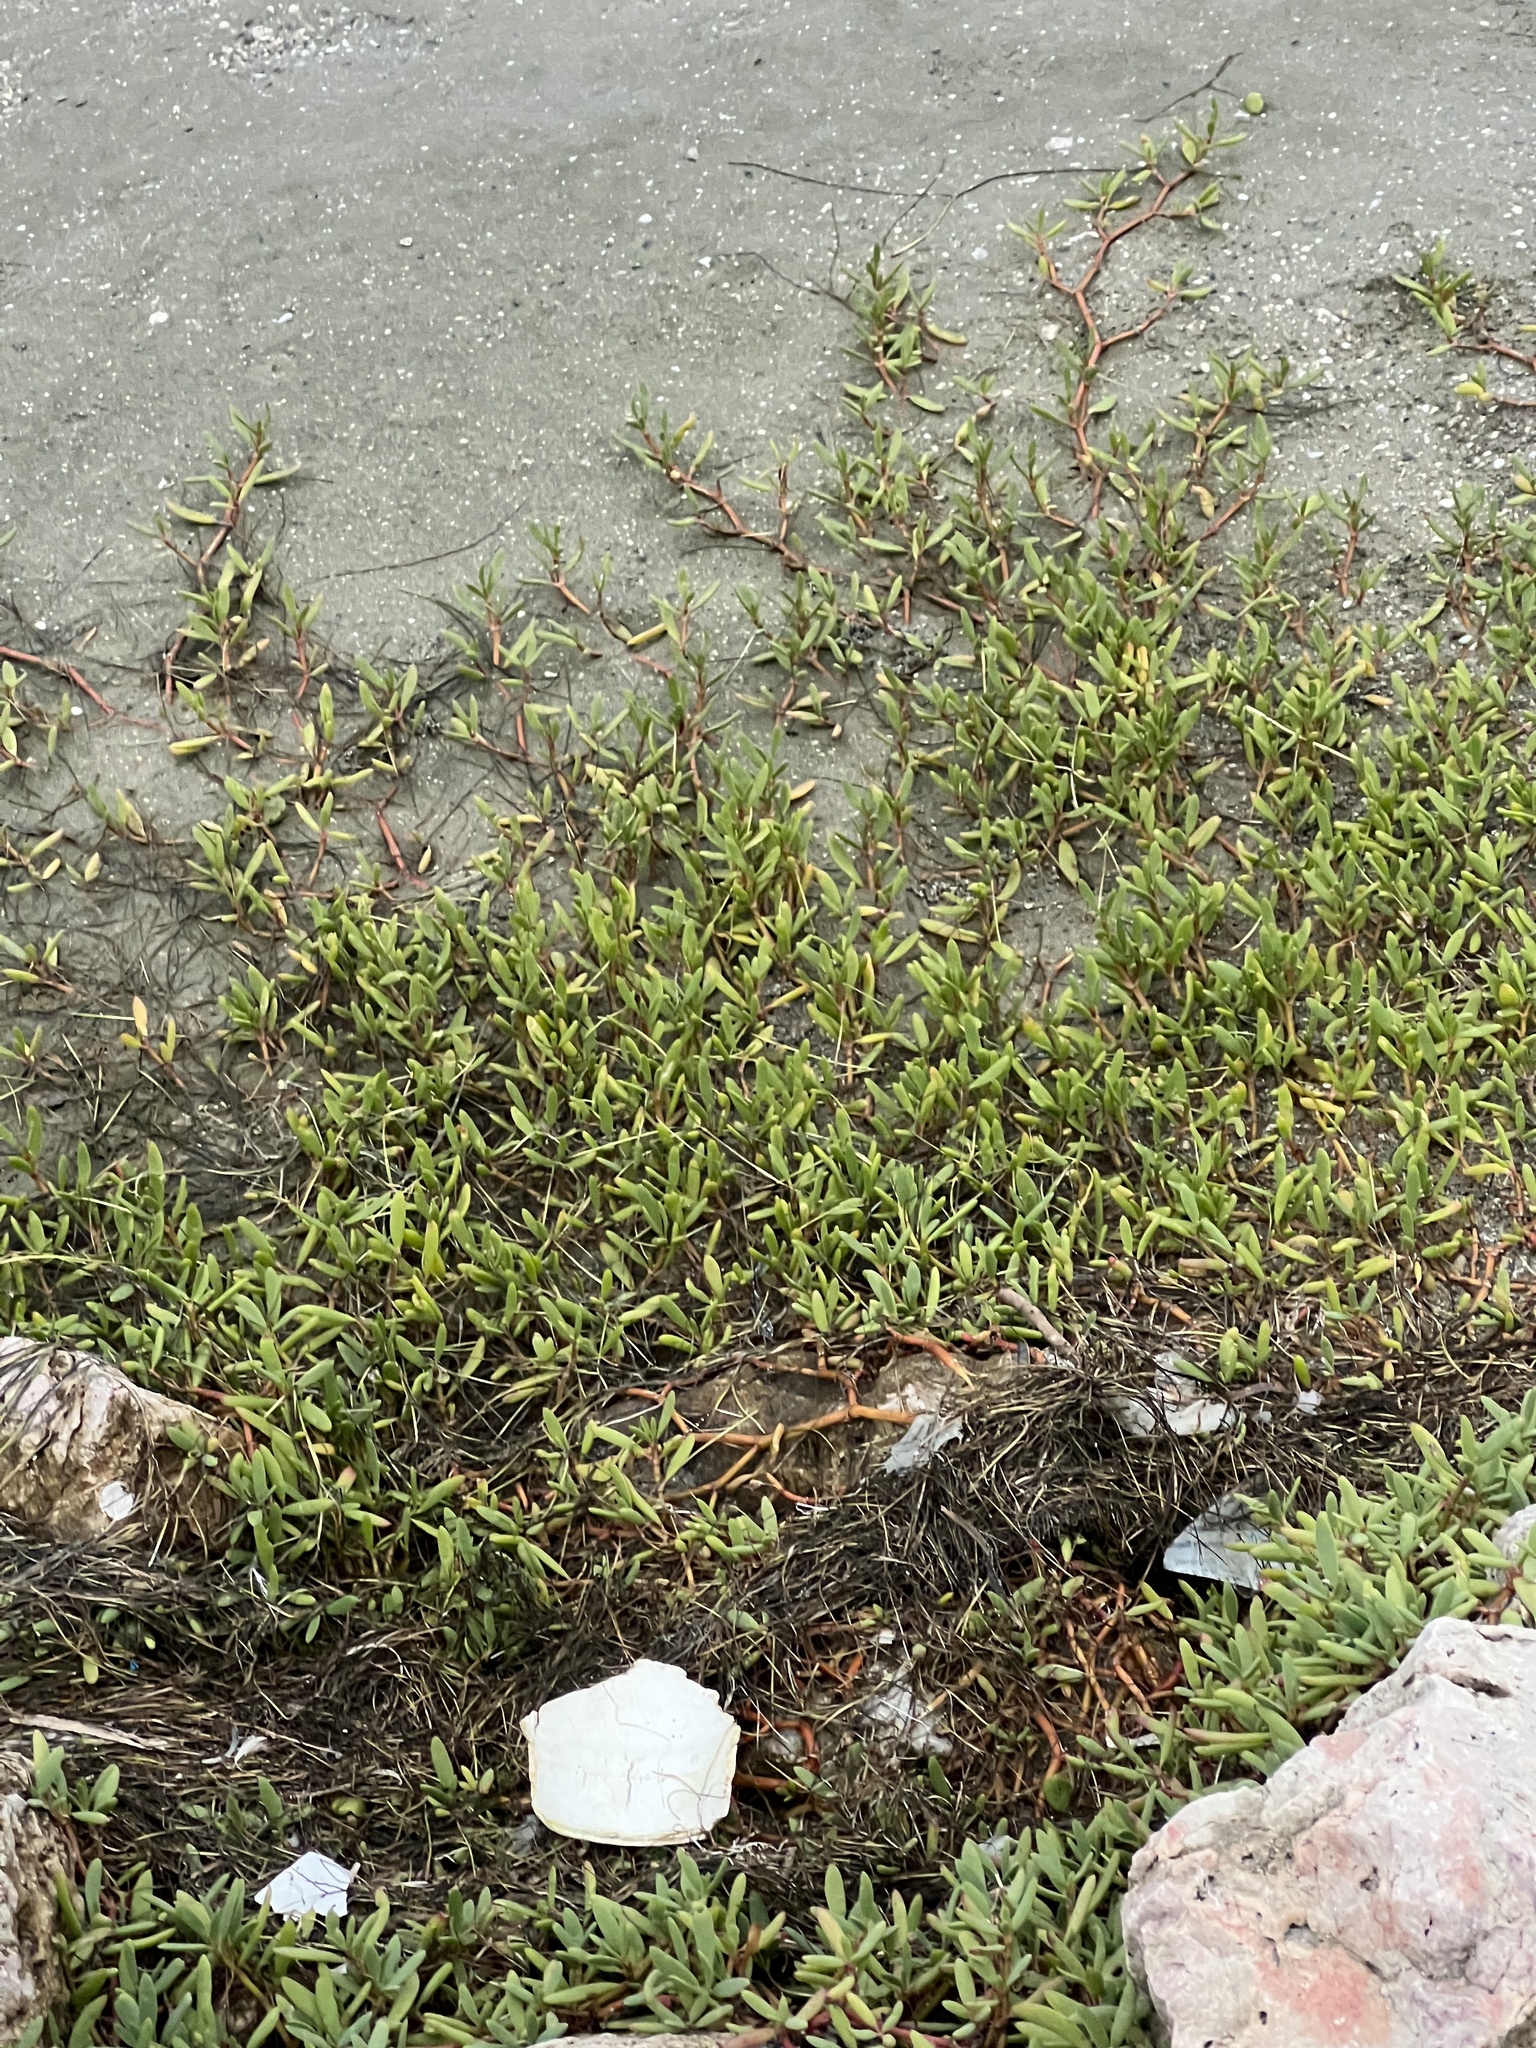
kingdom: Plantae
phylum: Tracheophyta
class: Magnoliopsida
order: Caryophyllales
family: Aizoaceae
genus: Sesuvium
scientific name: Sesuvium portulacastrum
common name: Sea-purslane
